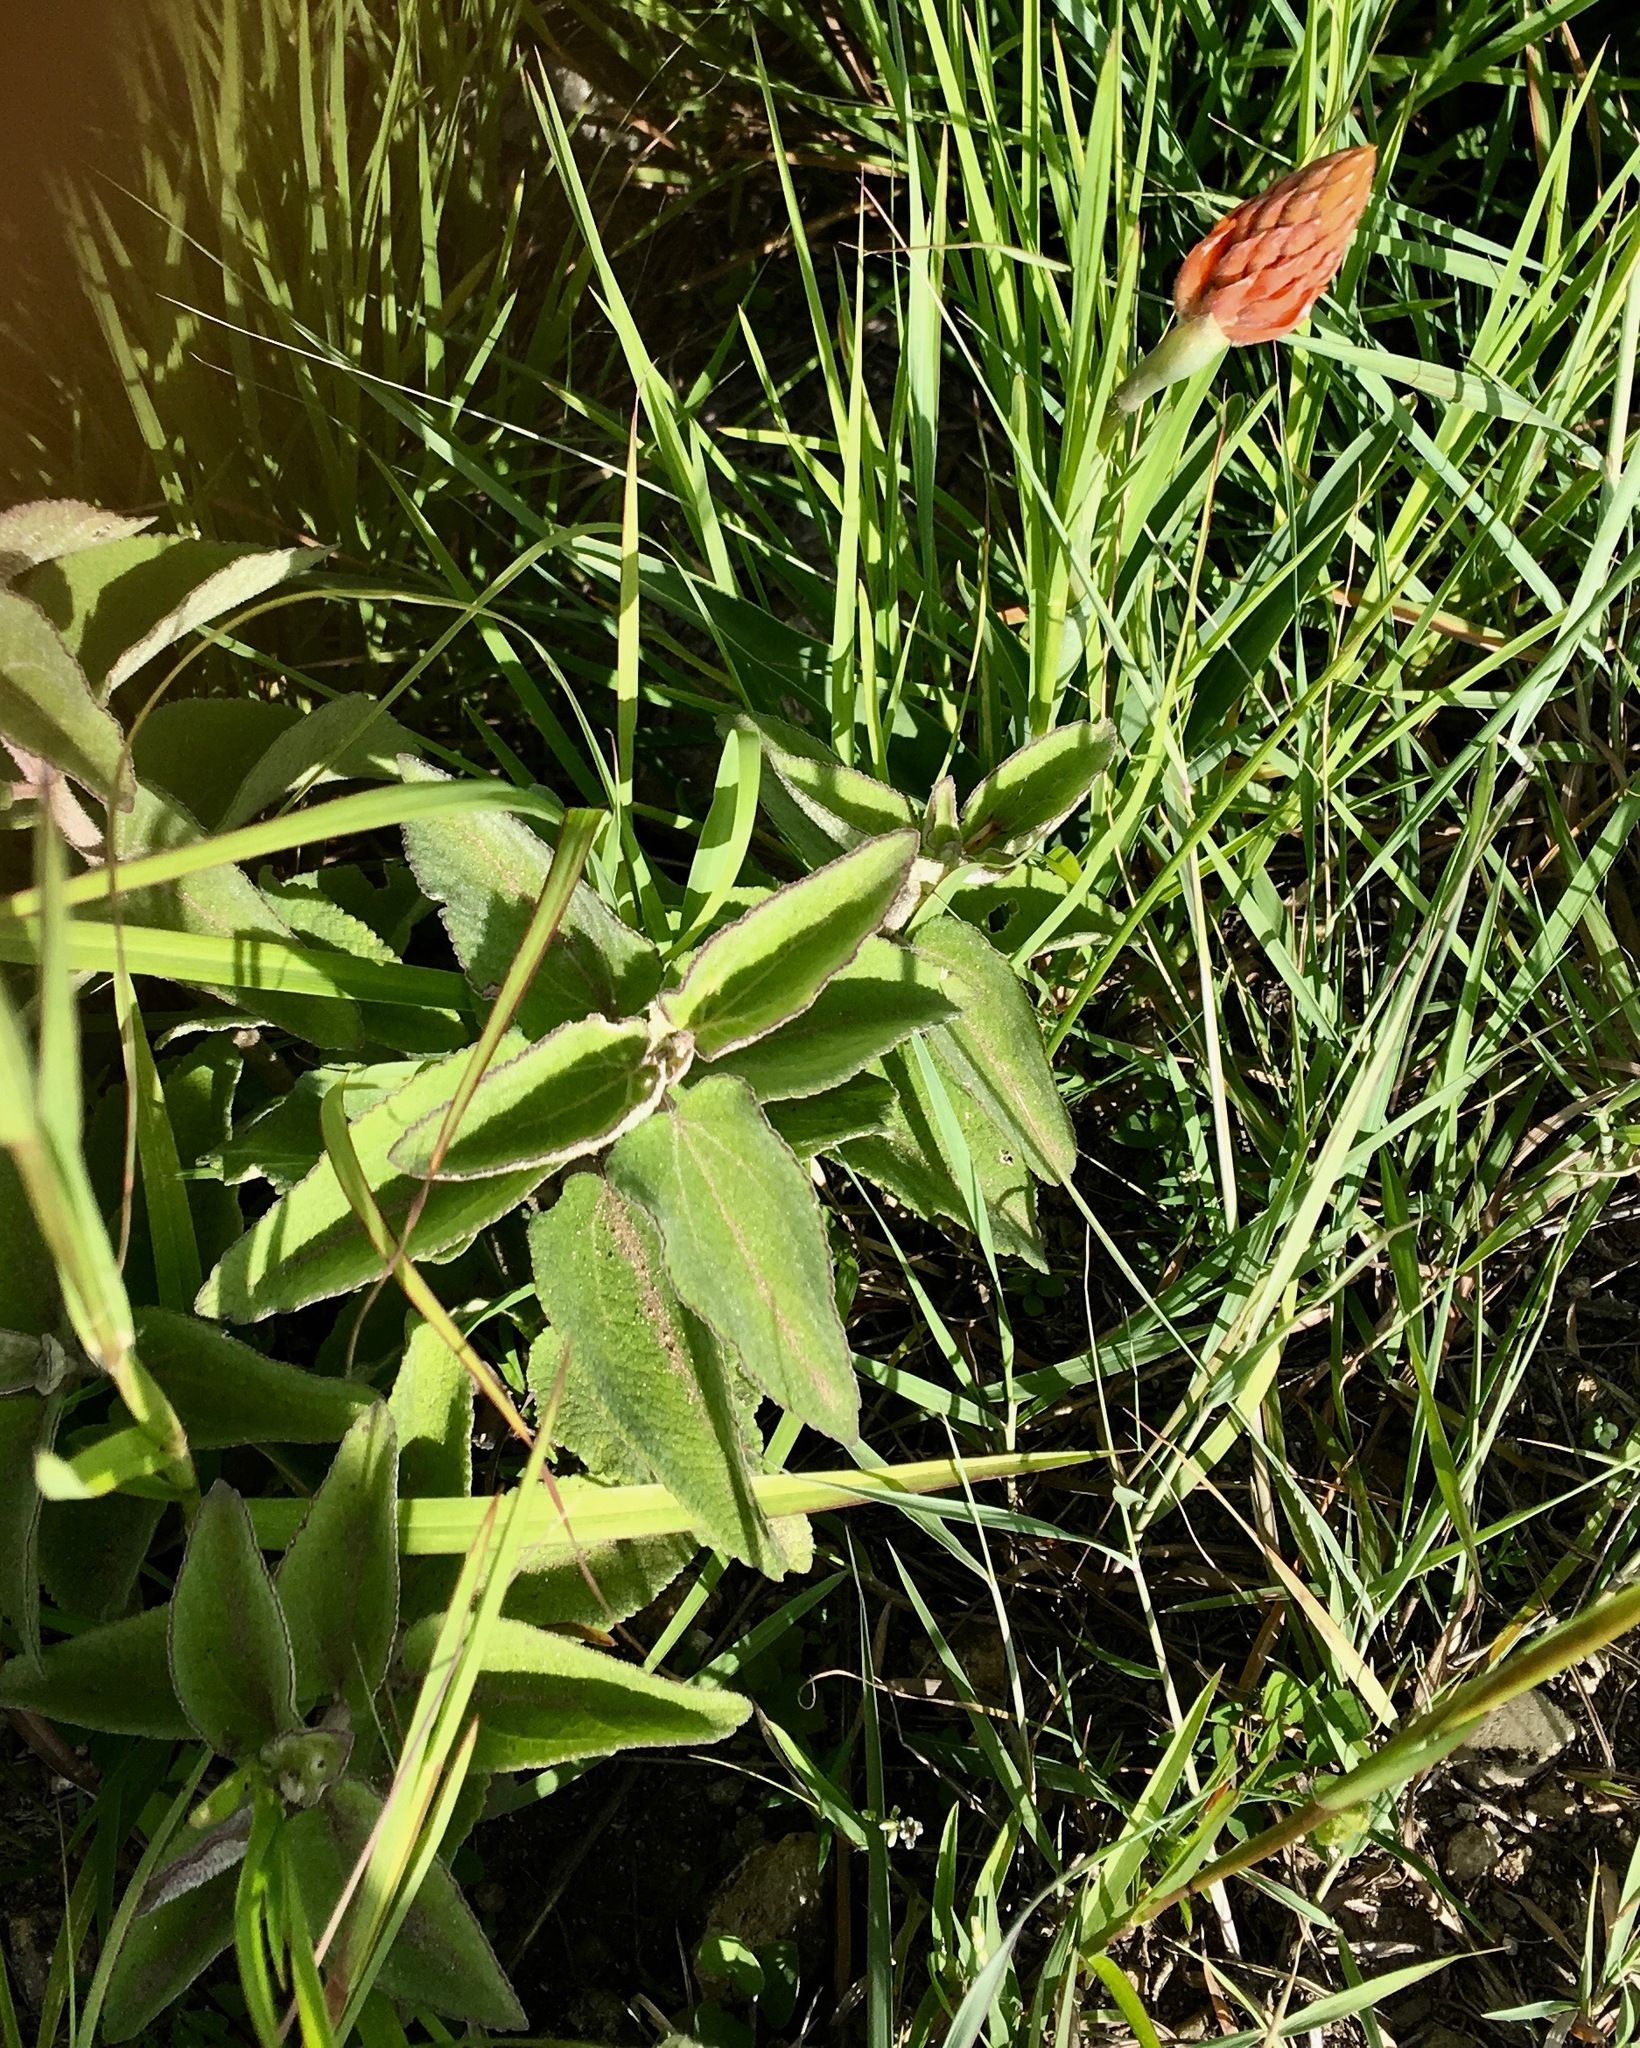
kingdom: Plantae
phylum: Tracheophyta
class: Liliopsida
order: Asparagales
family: Orchidaceae
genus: Dichromanthus
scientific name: Dichromanthus cinnabarinus
